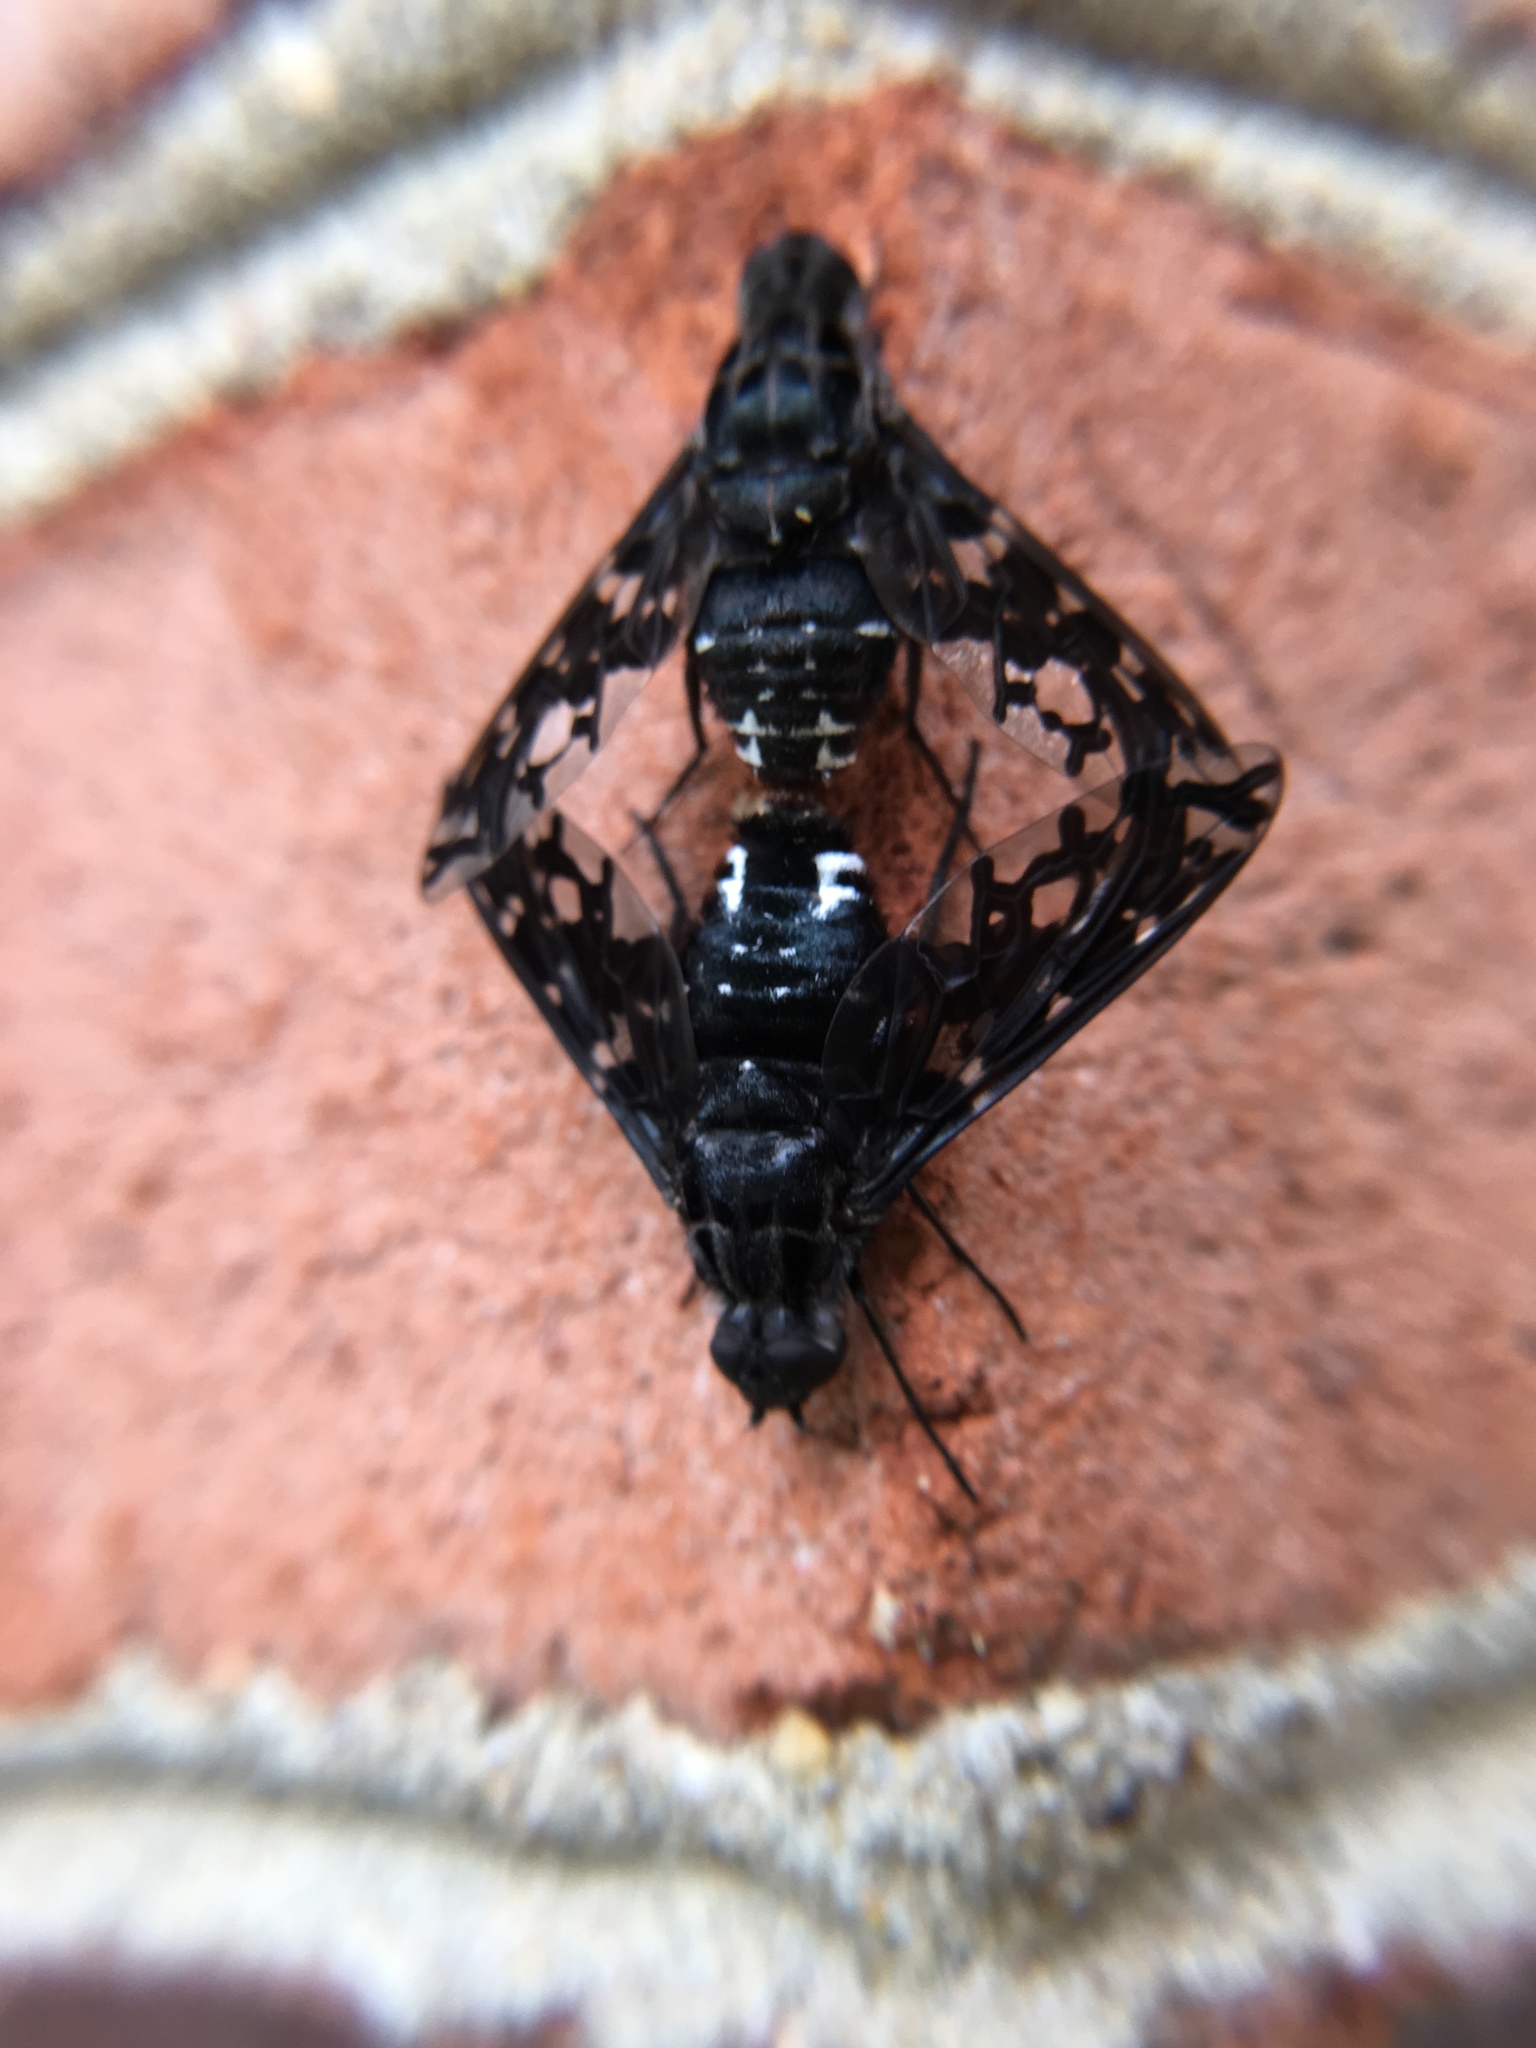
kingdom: Animalia
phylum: Arthropoda
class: Insecta
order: Diptera
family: Bombyliidae
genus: Xenox
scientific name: Xenox tigrinus
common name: Tiger bee fly
